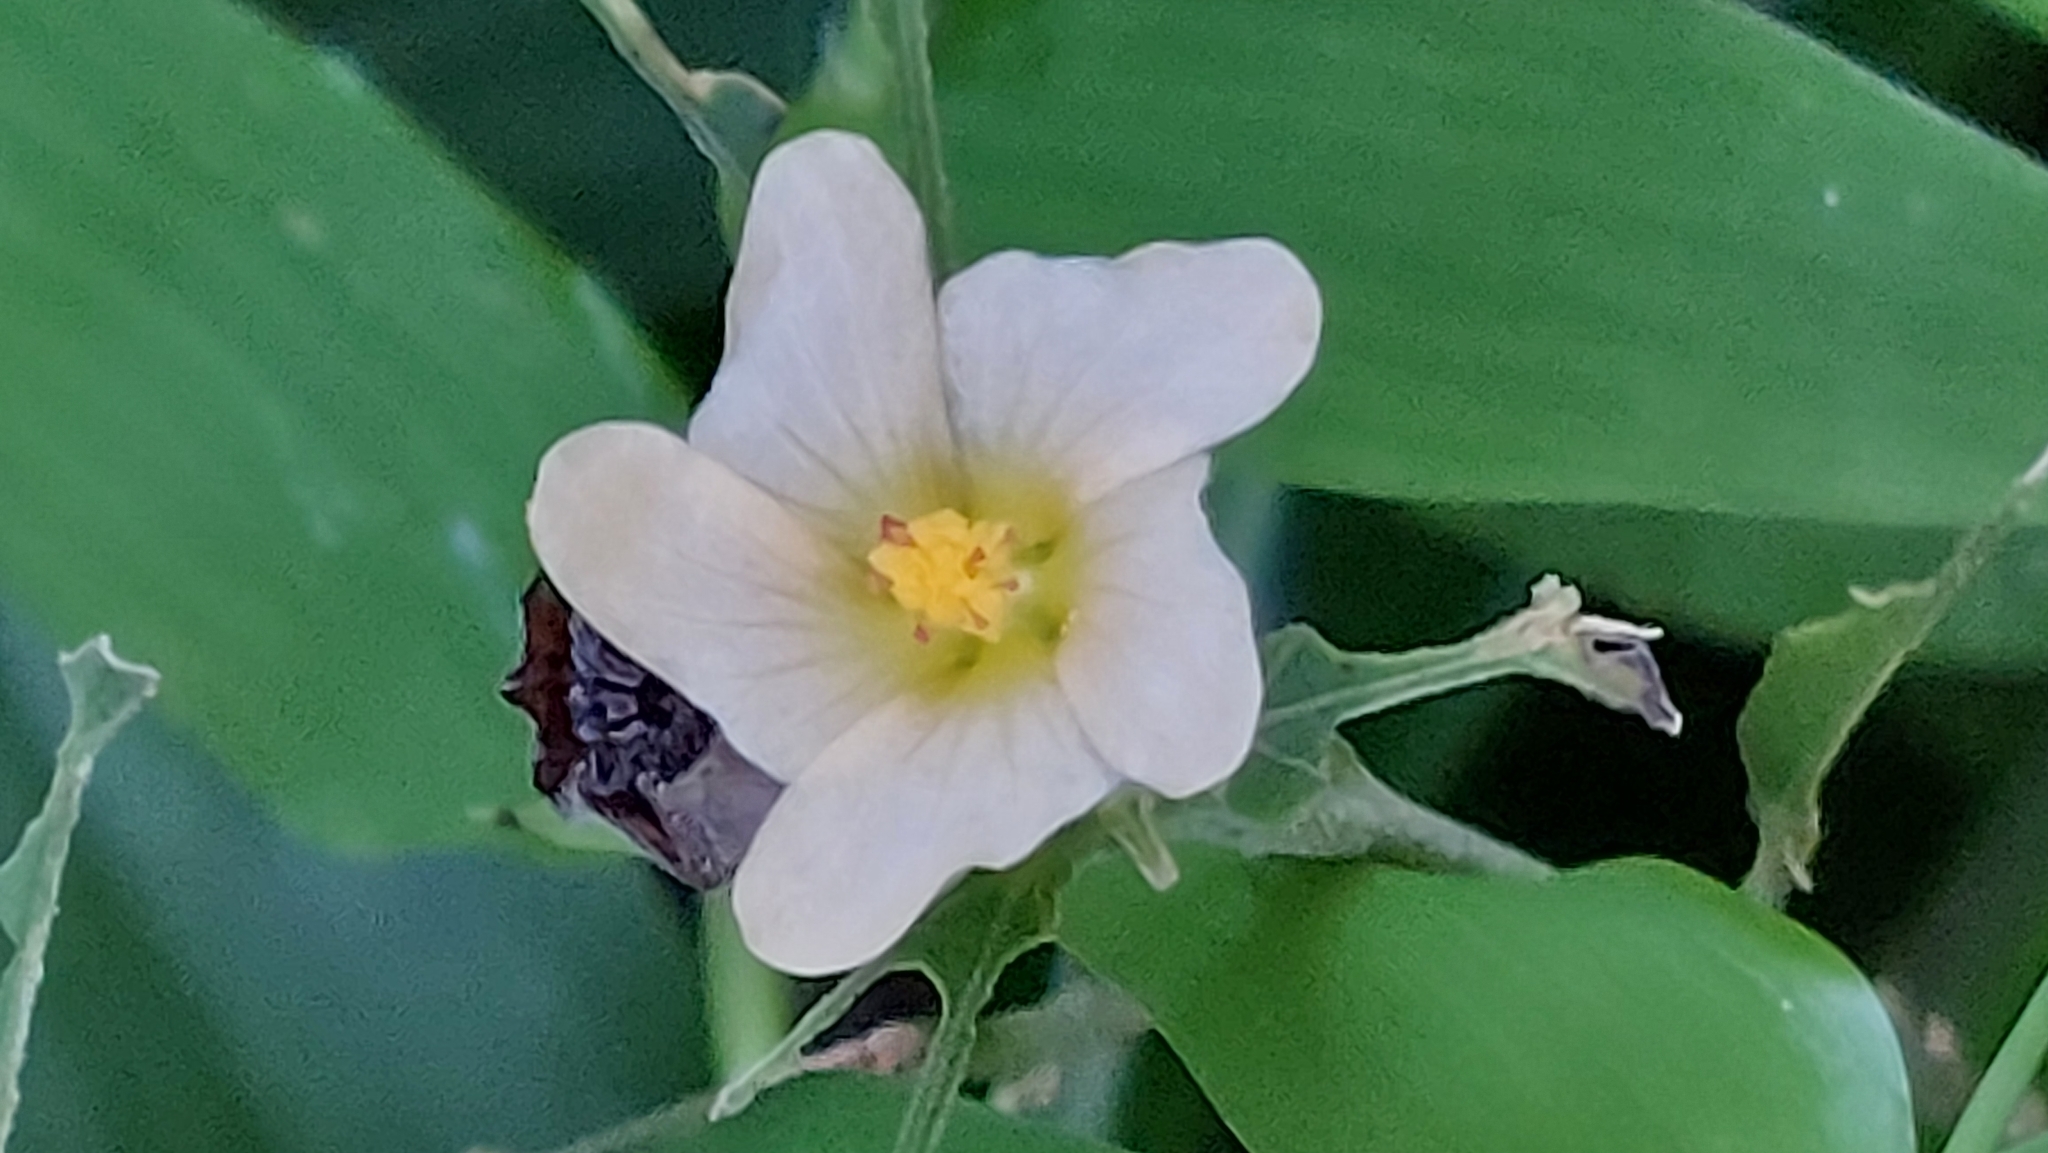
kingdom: Plantae
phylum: Tracheophyta
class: Magnoliopsida
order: Malvales
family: Malvaceae
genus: Sida
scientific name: Sida rhombifolia
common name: Queensland-hemp
